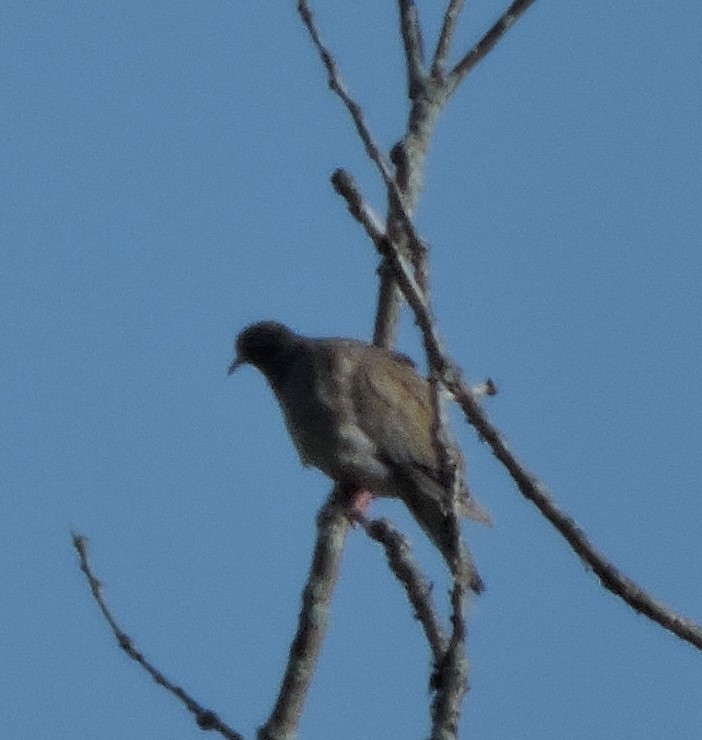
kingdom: Animalia
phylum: Chordata
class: Aves
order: Columbiformes
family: Columbidae
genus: Zenaida
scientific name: Zenaida macroura
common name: Mourning dove
